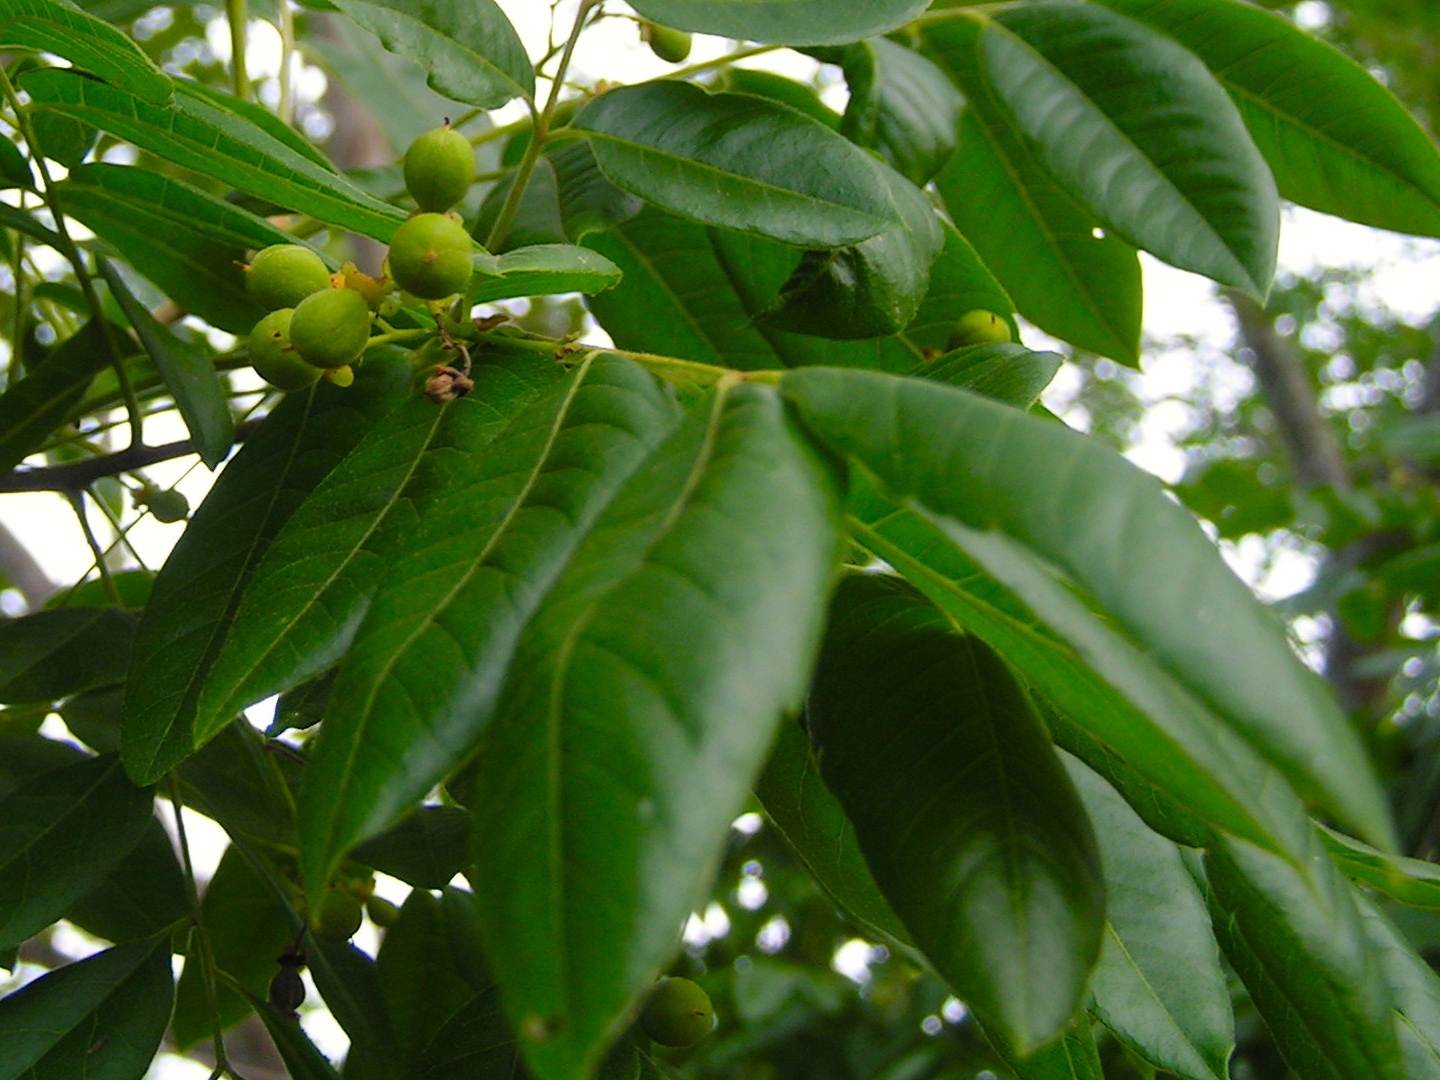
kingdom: Plantae
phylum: Tracheophyta
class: Magnoliopsida
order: Sapindales
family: Meliaceae
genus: Trichilia
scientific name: Trichilia
